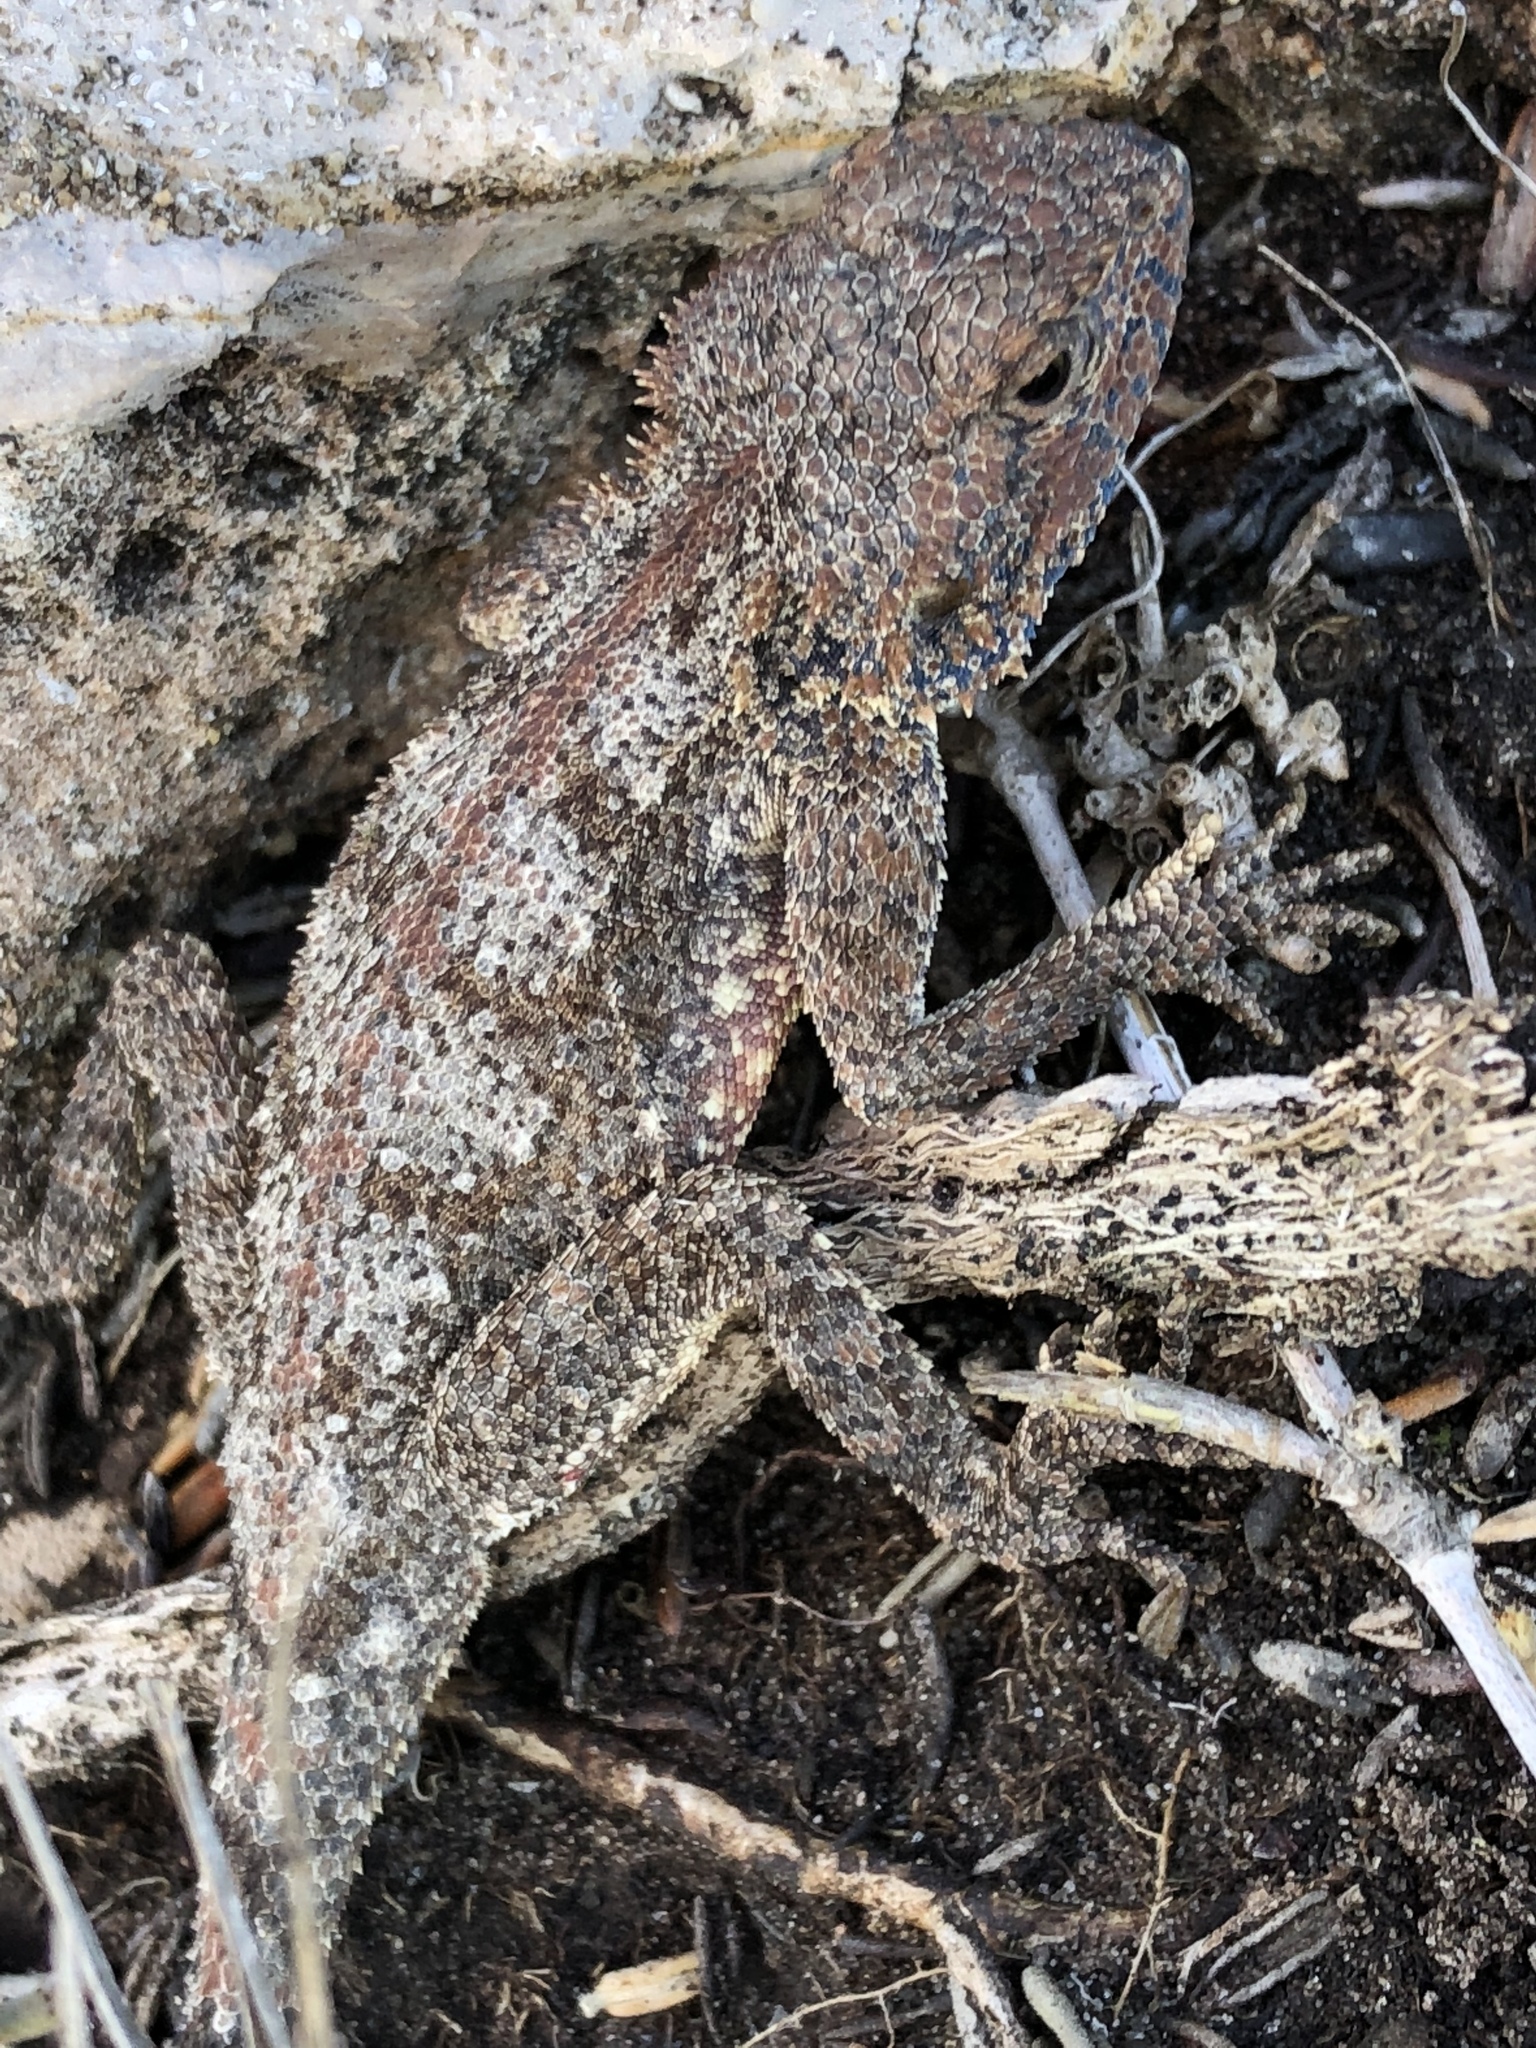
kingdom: Animalia
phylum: Chordata
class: Squamata
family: Agamidae
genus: Agama
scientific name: Agama atra
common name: Southern african rock agama
